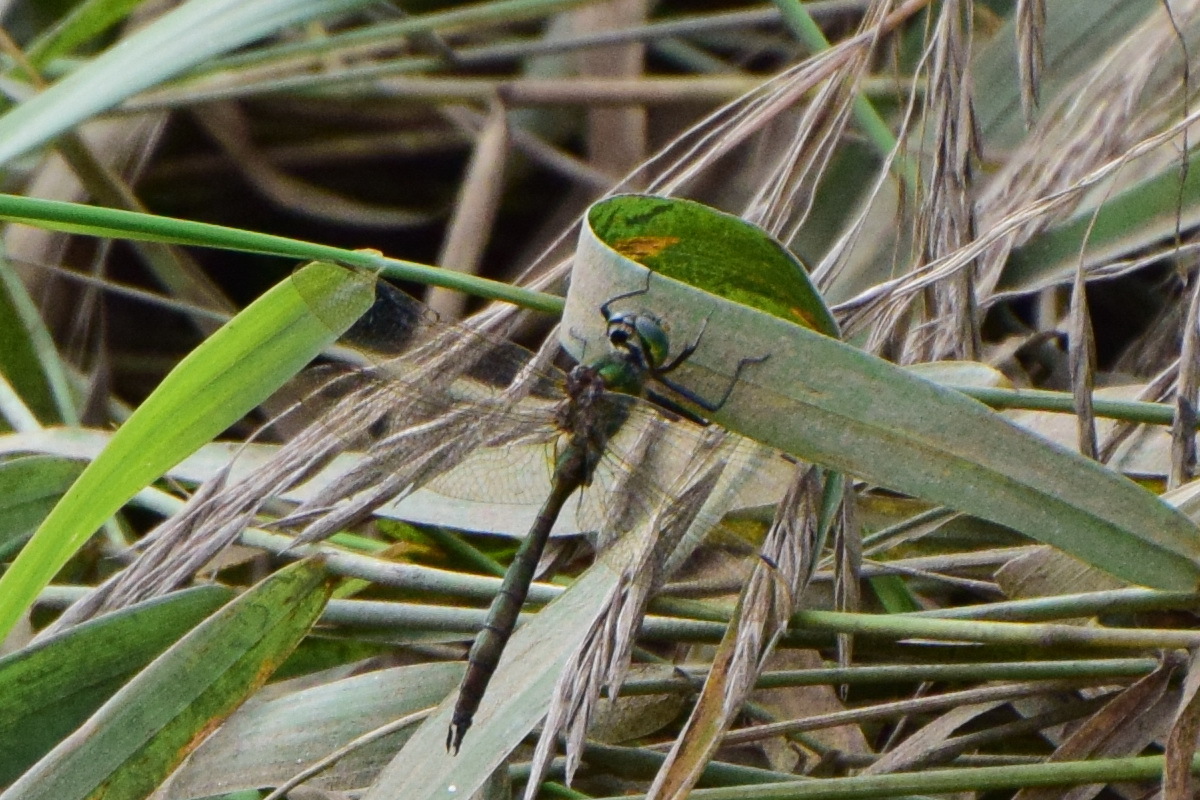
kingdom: Animalia
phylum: Arthropoda
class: Insecta
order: Odonata
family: Corduliidae
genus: Somatochlora
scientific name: Somatochlora metallica
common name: Brilliant emerald
